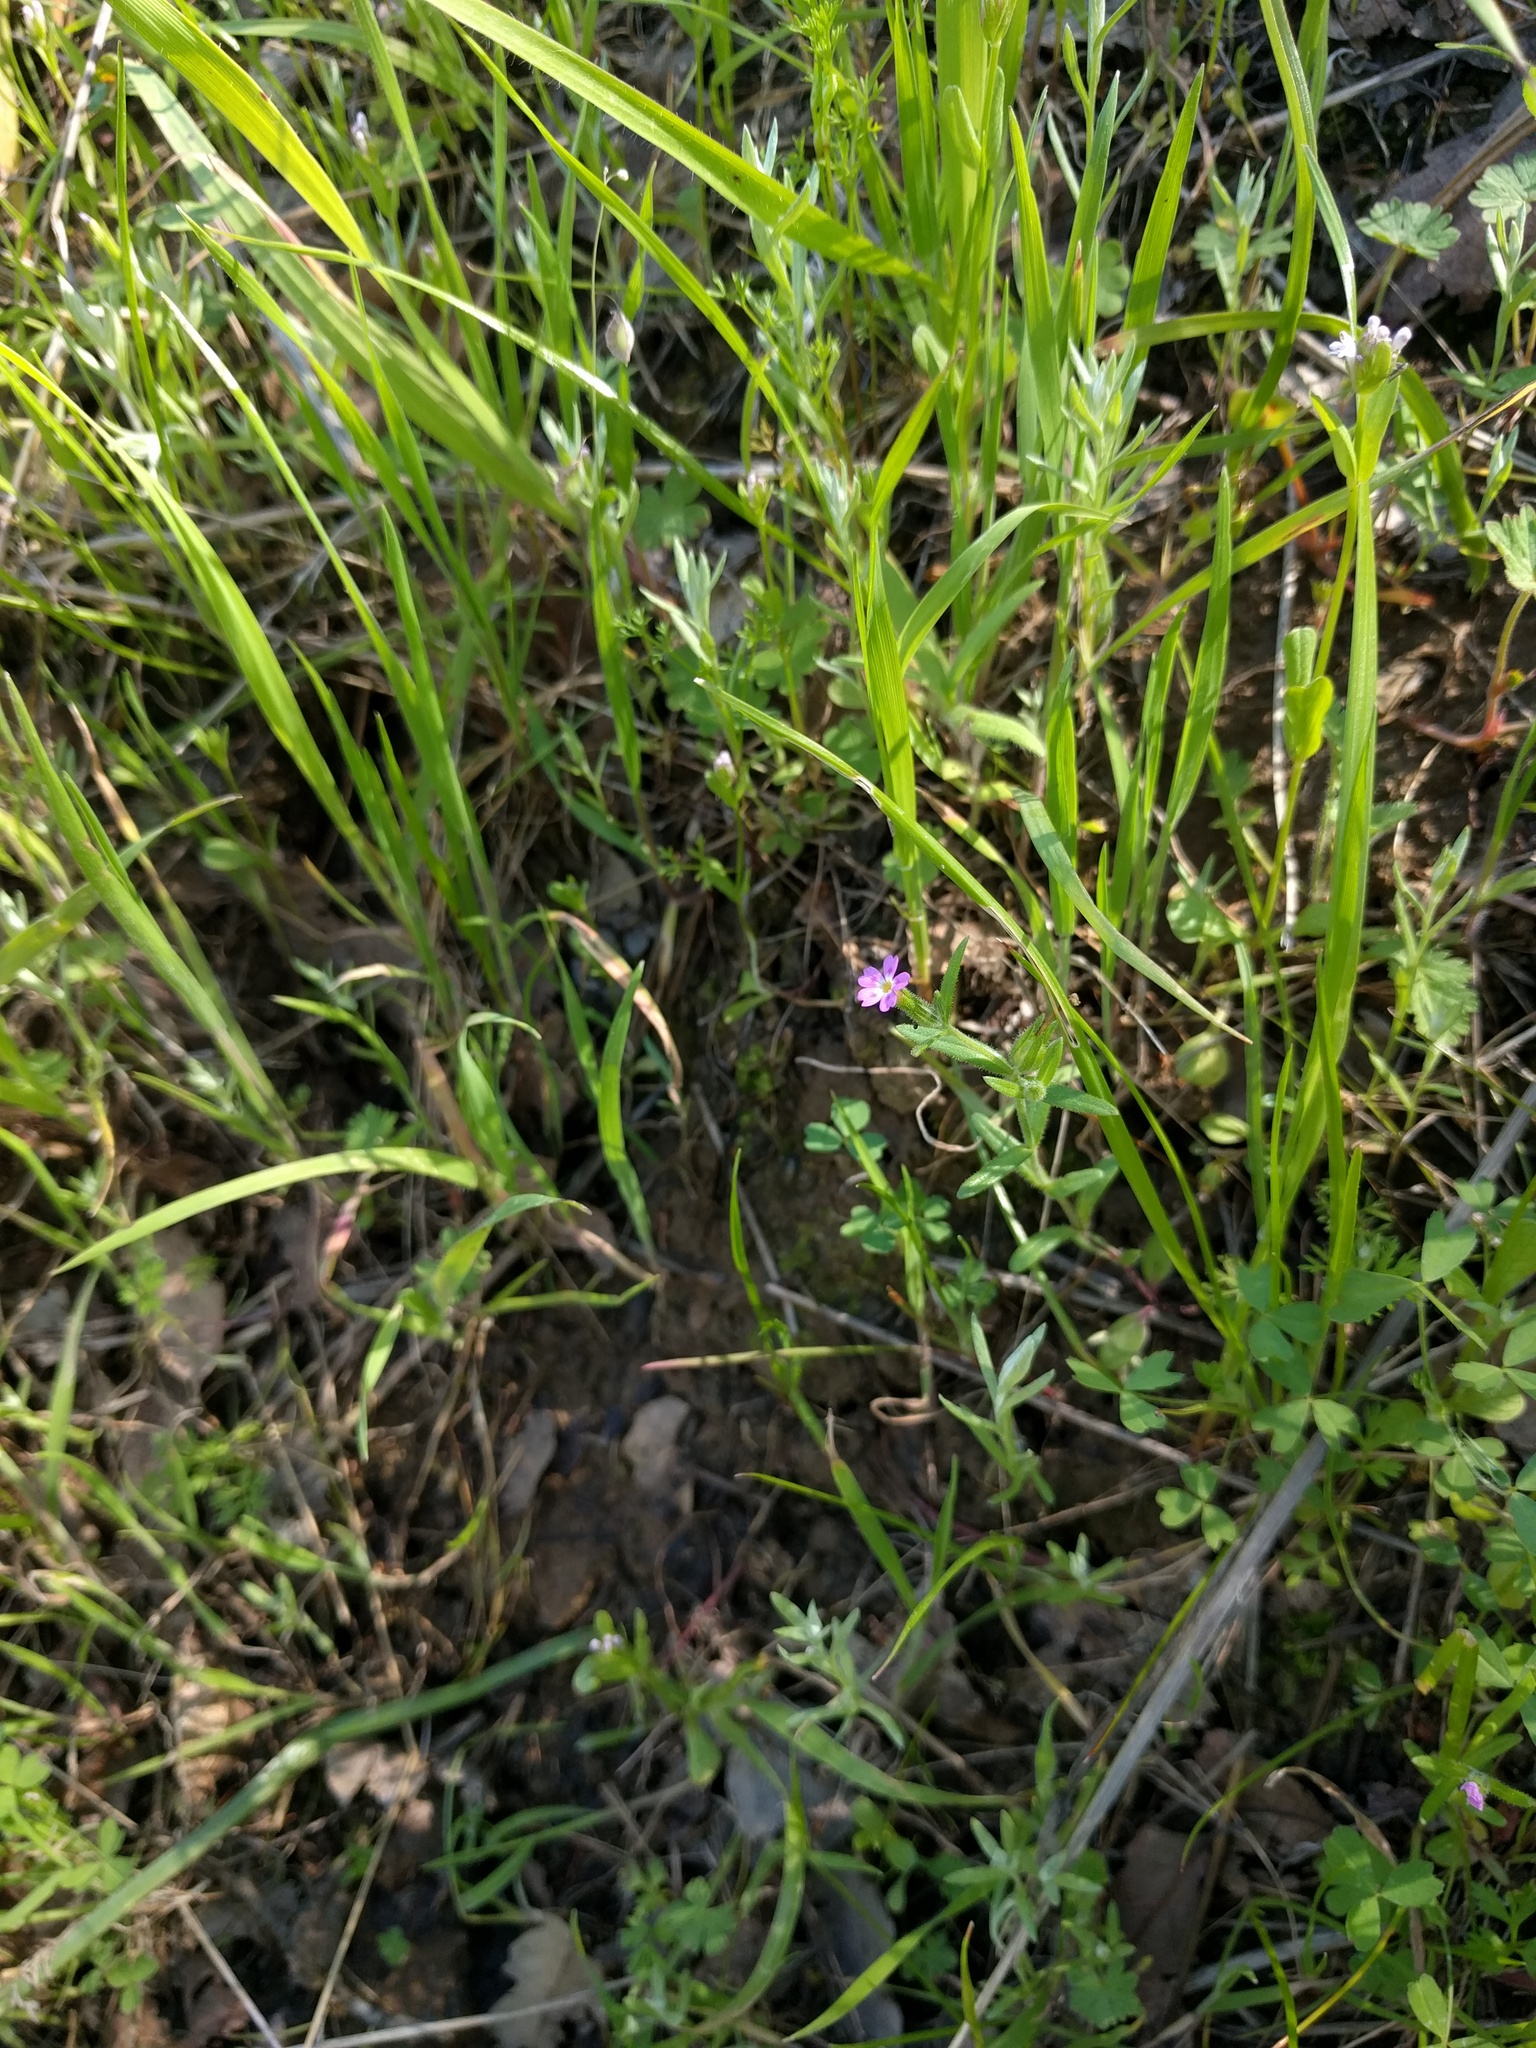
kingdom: Plantae
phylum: Tracheophyta
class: Magnoliopsida
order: Ericales
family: Polemoniaceae
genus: Phlox
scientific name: Phlox gracilis
